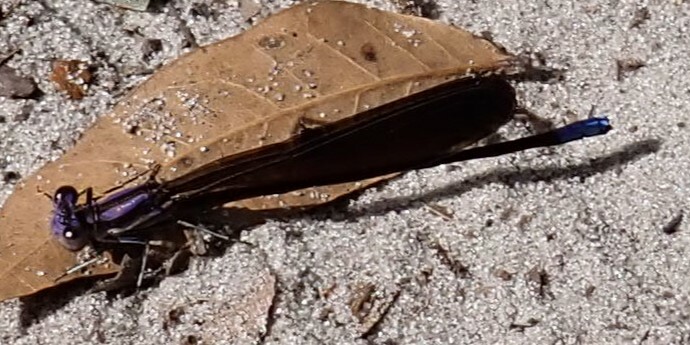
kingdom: Animalia
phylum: Arthropoda
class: Insecta
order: Odonata
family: Coenagrionidae
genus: Argia
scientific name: Argia fumipennis
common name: Variable dancer
